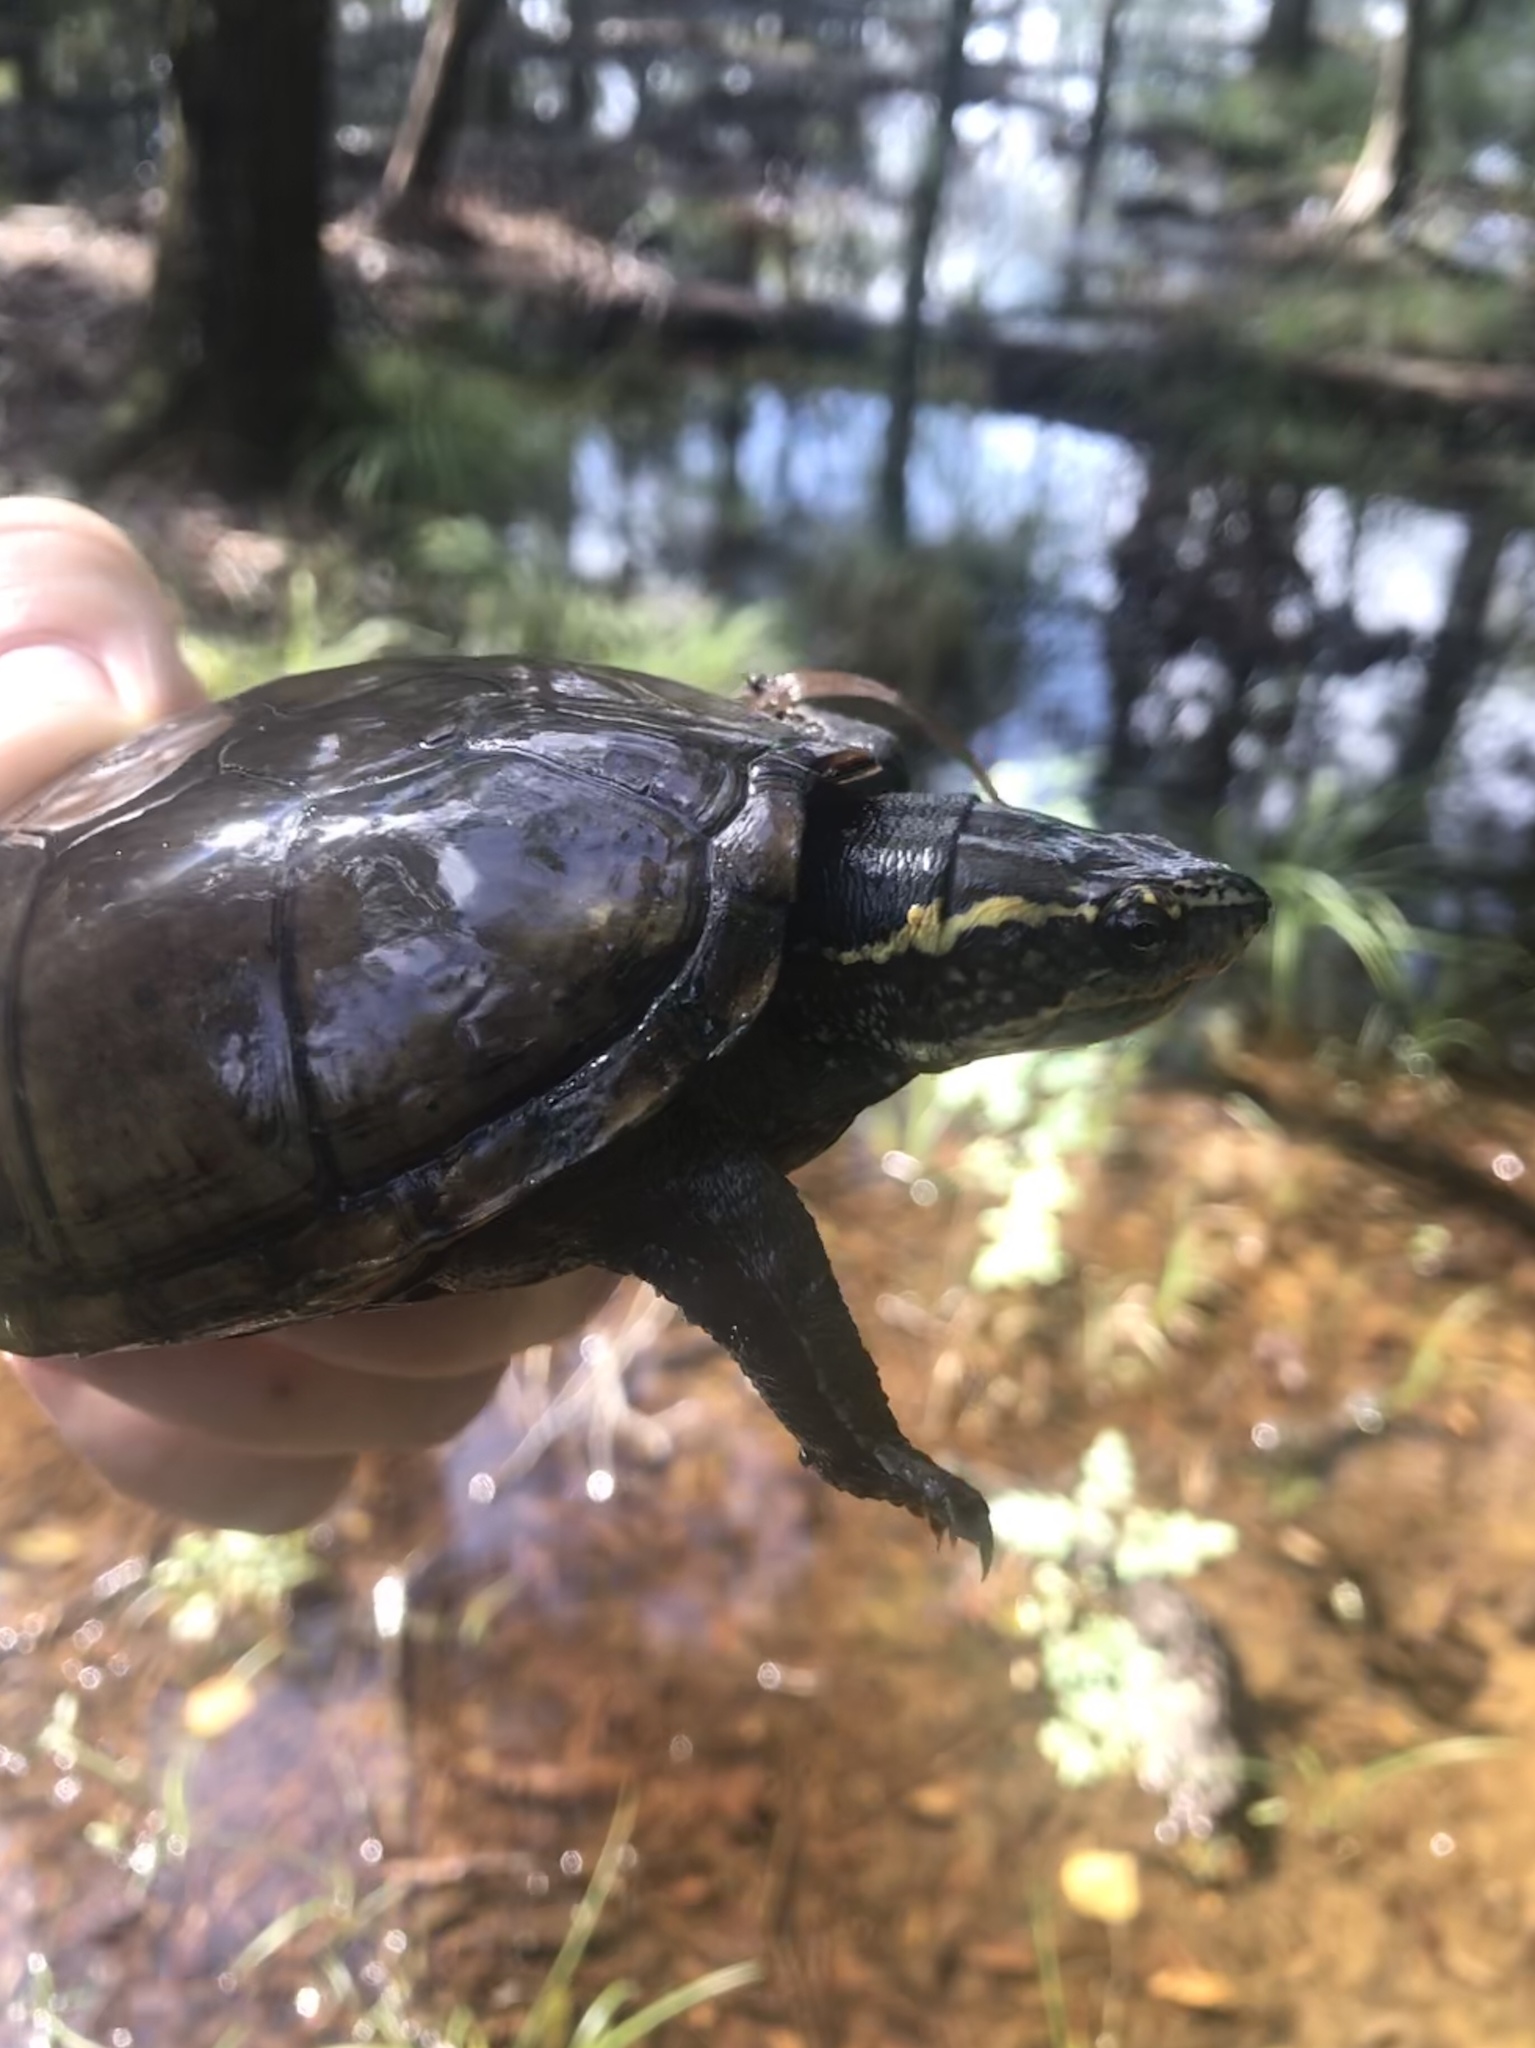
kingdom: Animalia
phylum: Chordata
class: Testudines
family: Kinosternidae
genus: Kinosternon
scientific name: Kinosternon subrubrum
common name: Eastern mud turtle
